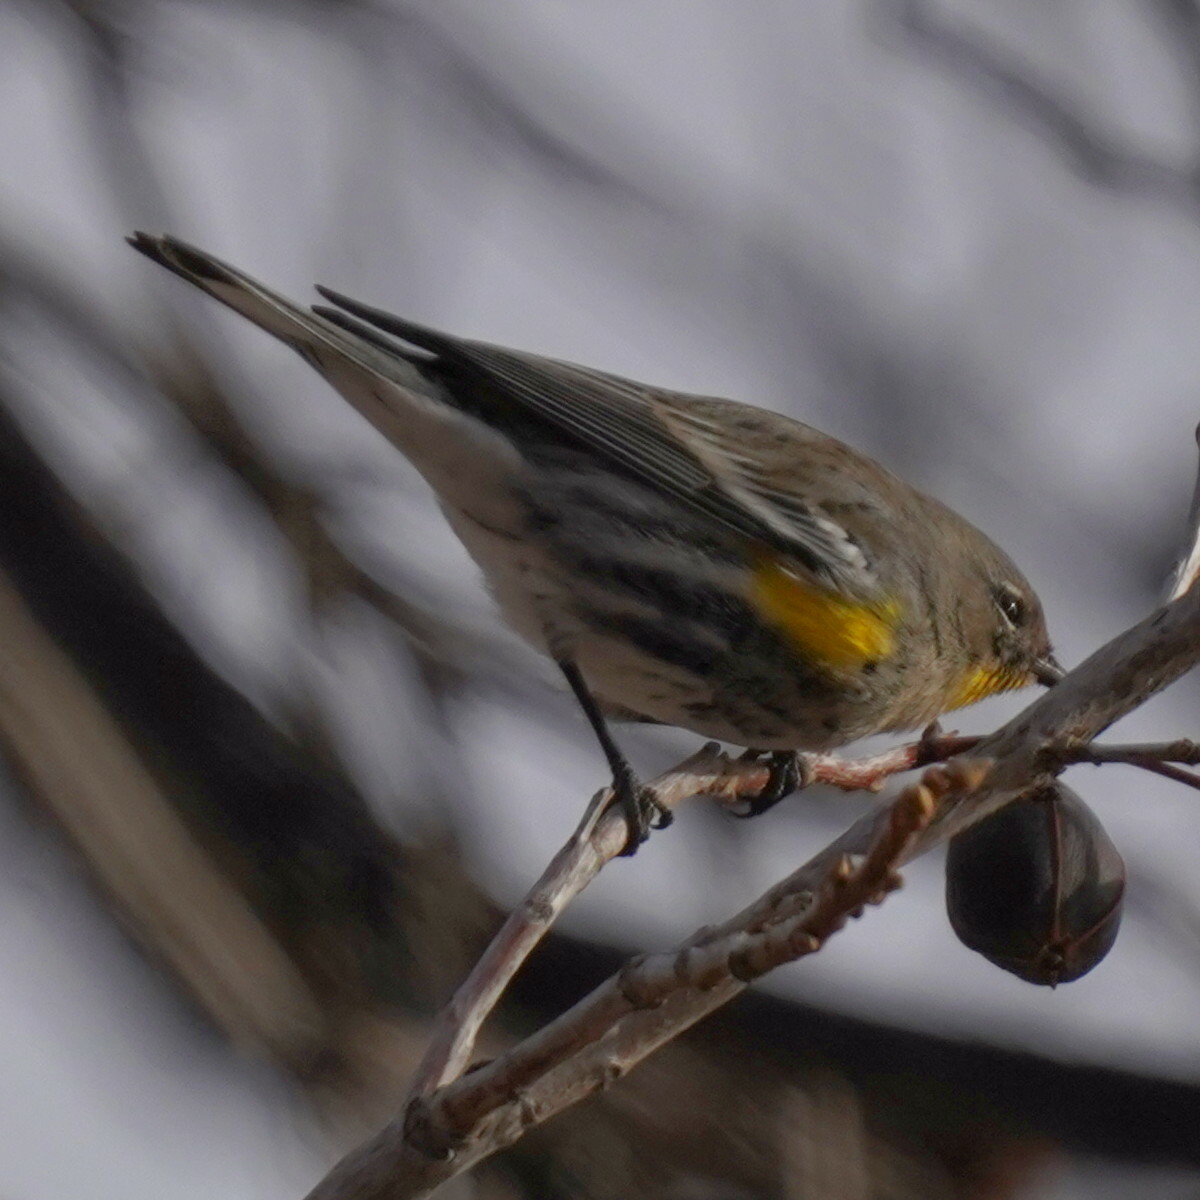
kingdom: Animalia
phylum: Chordata
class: Aves
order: Passeriformes
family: Parulidae
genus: Setophaga
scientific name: Setophaga auduboni
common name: Audubon's warbler
